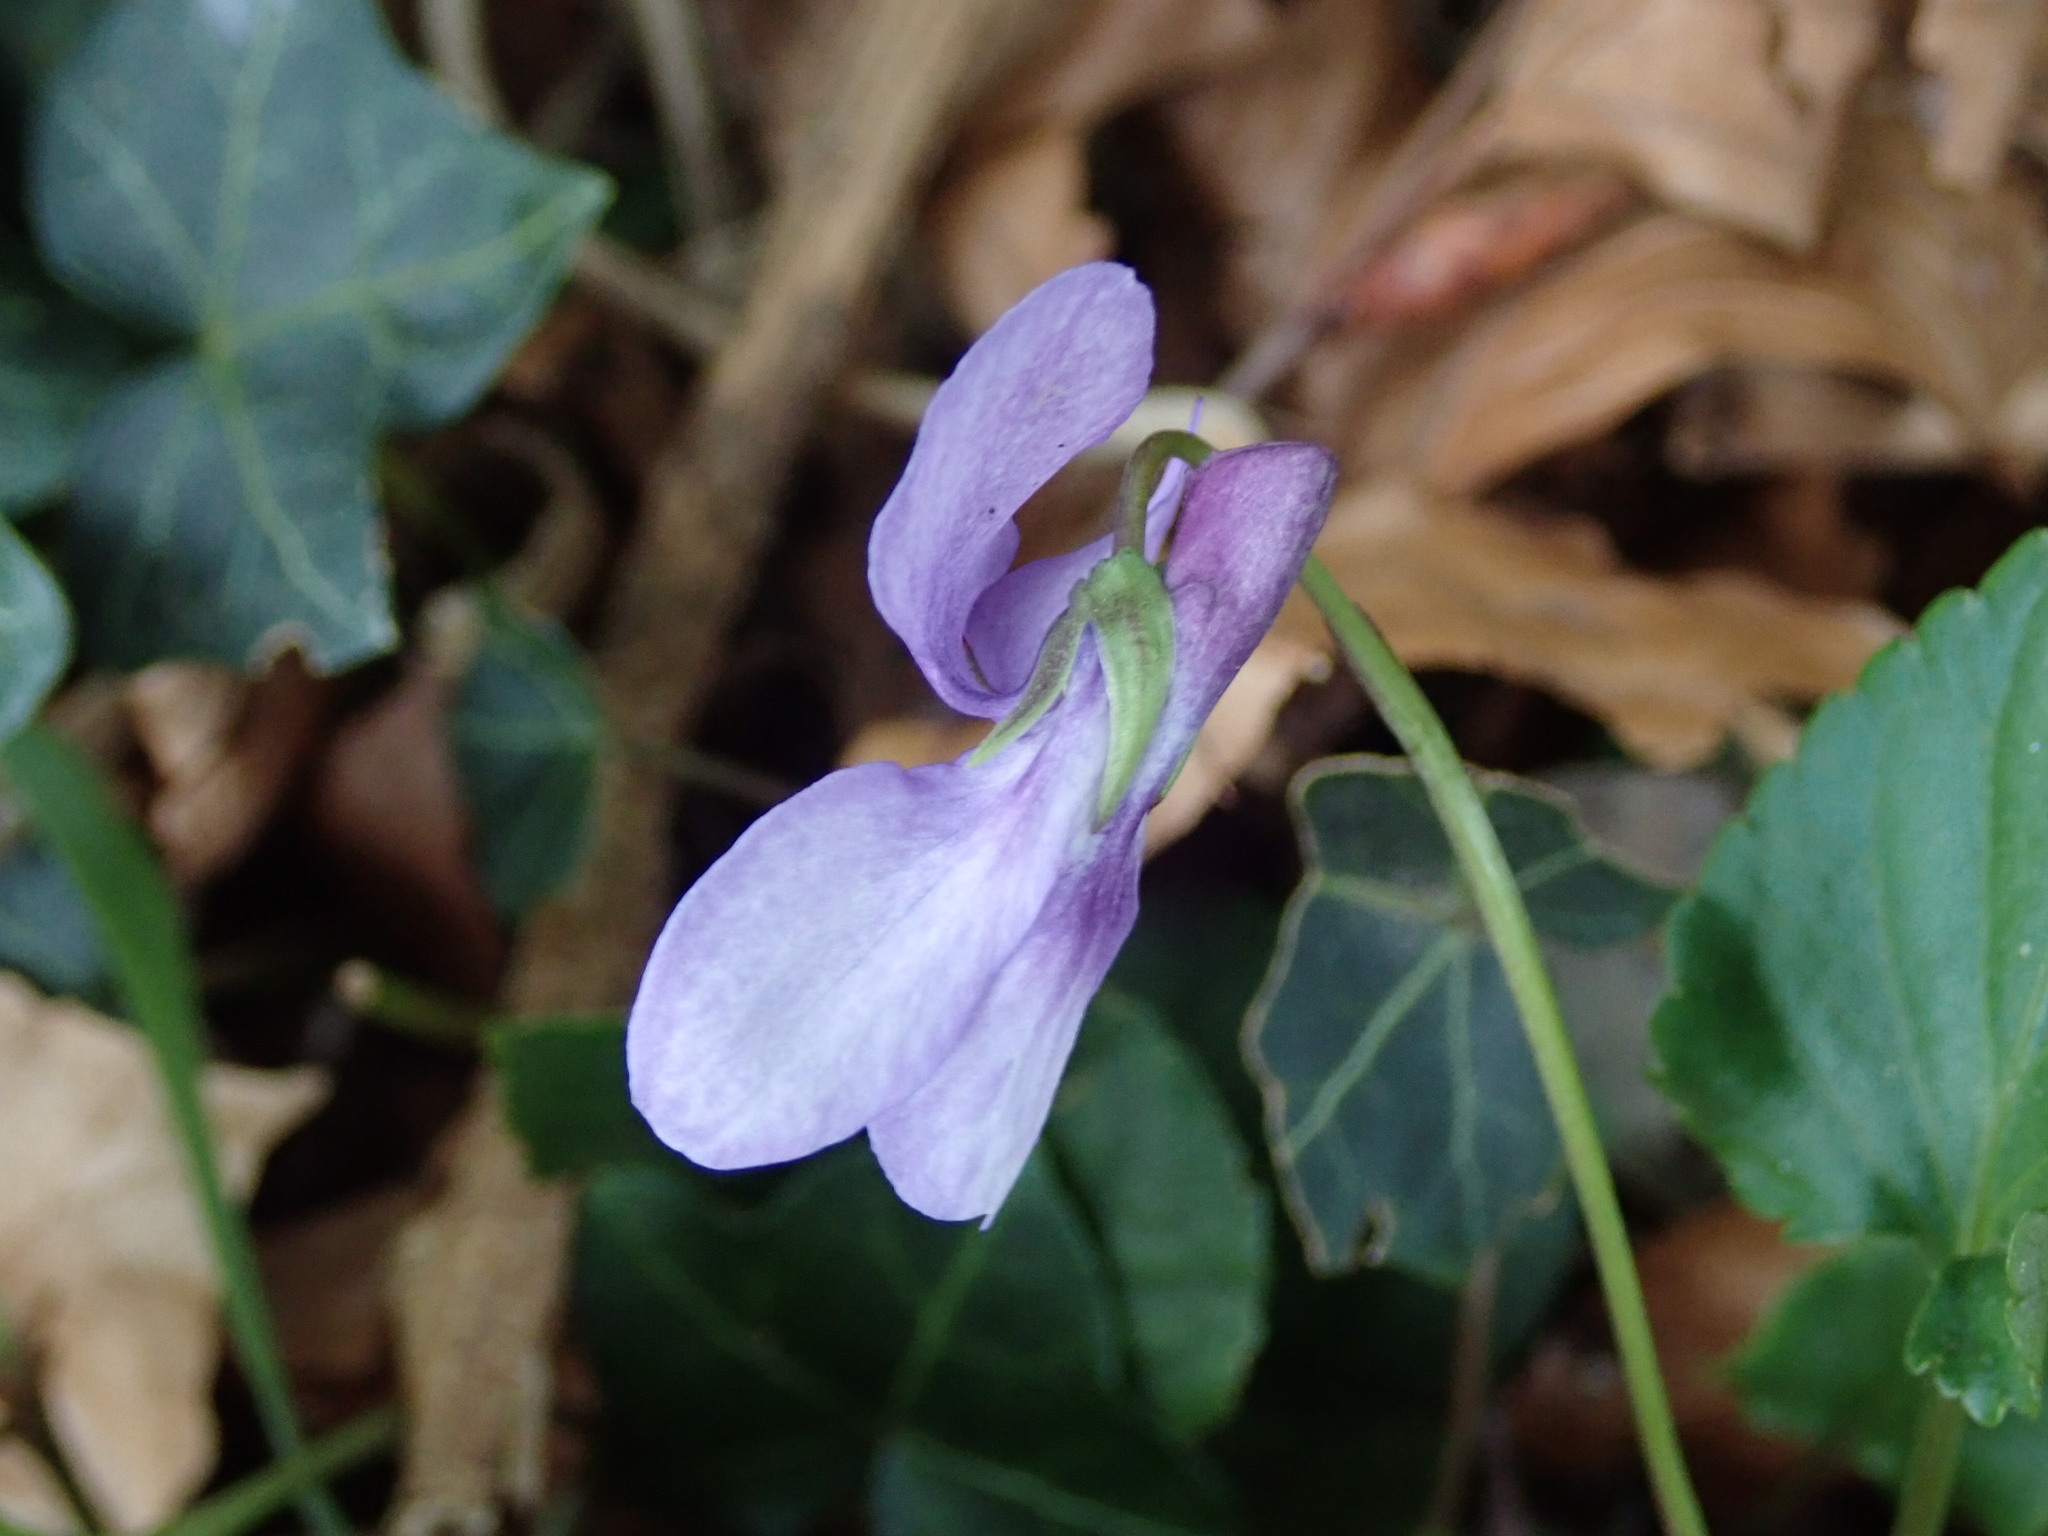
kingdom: Plantae
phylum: Tracheophyta
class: Magnoliopsida
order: Malpighiales
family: Violaceae
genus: Viola
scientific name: Viola reichenbachiana
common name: Early dog-violet
